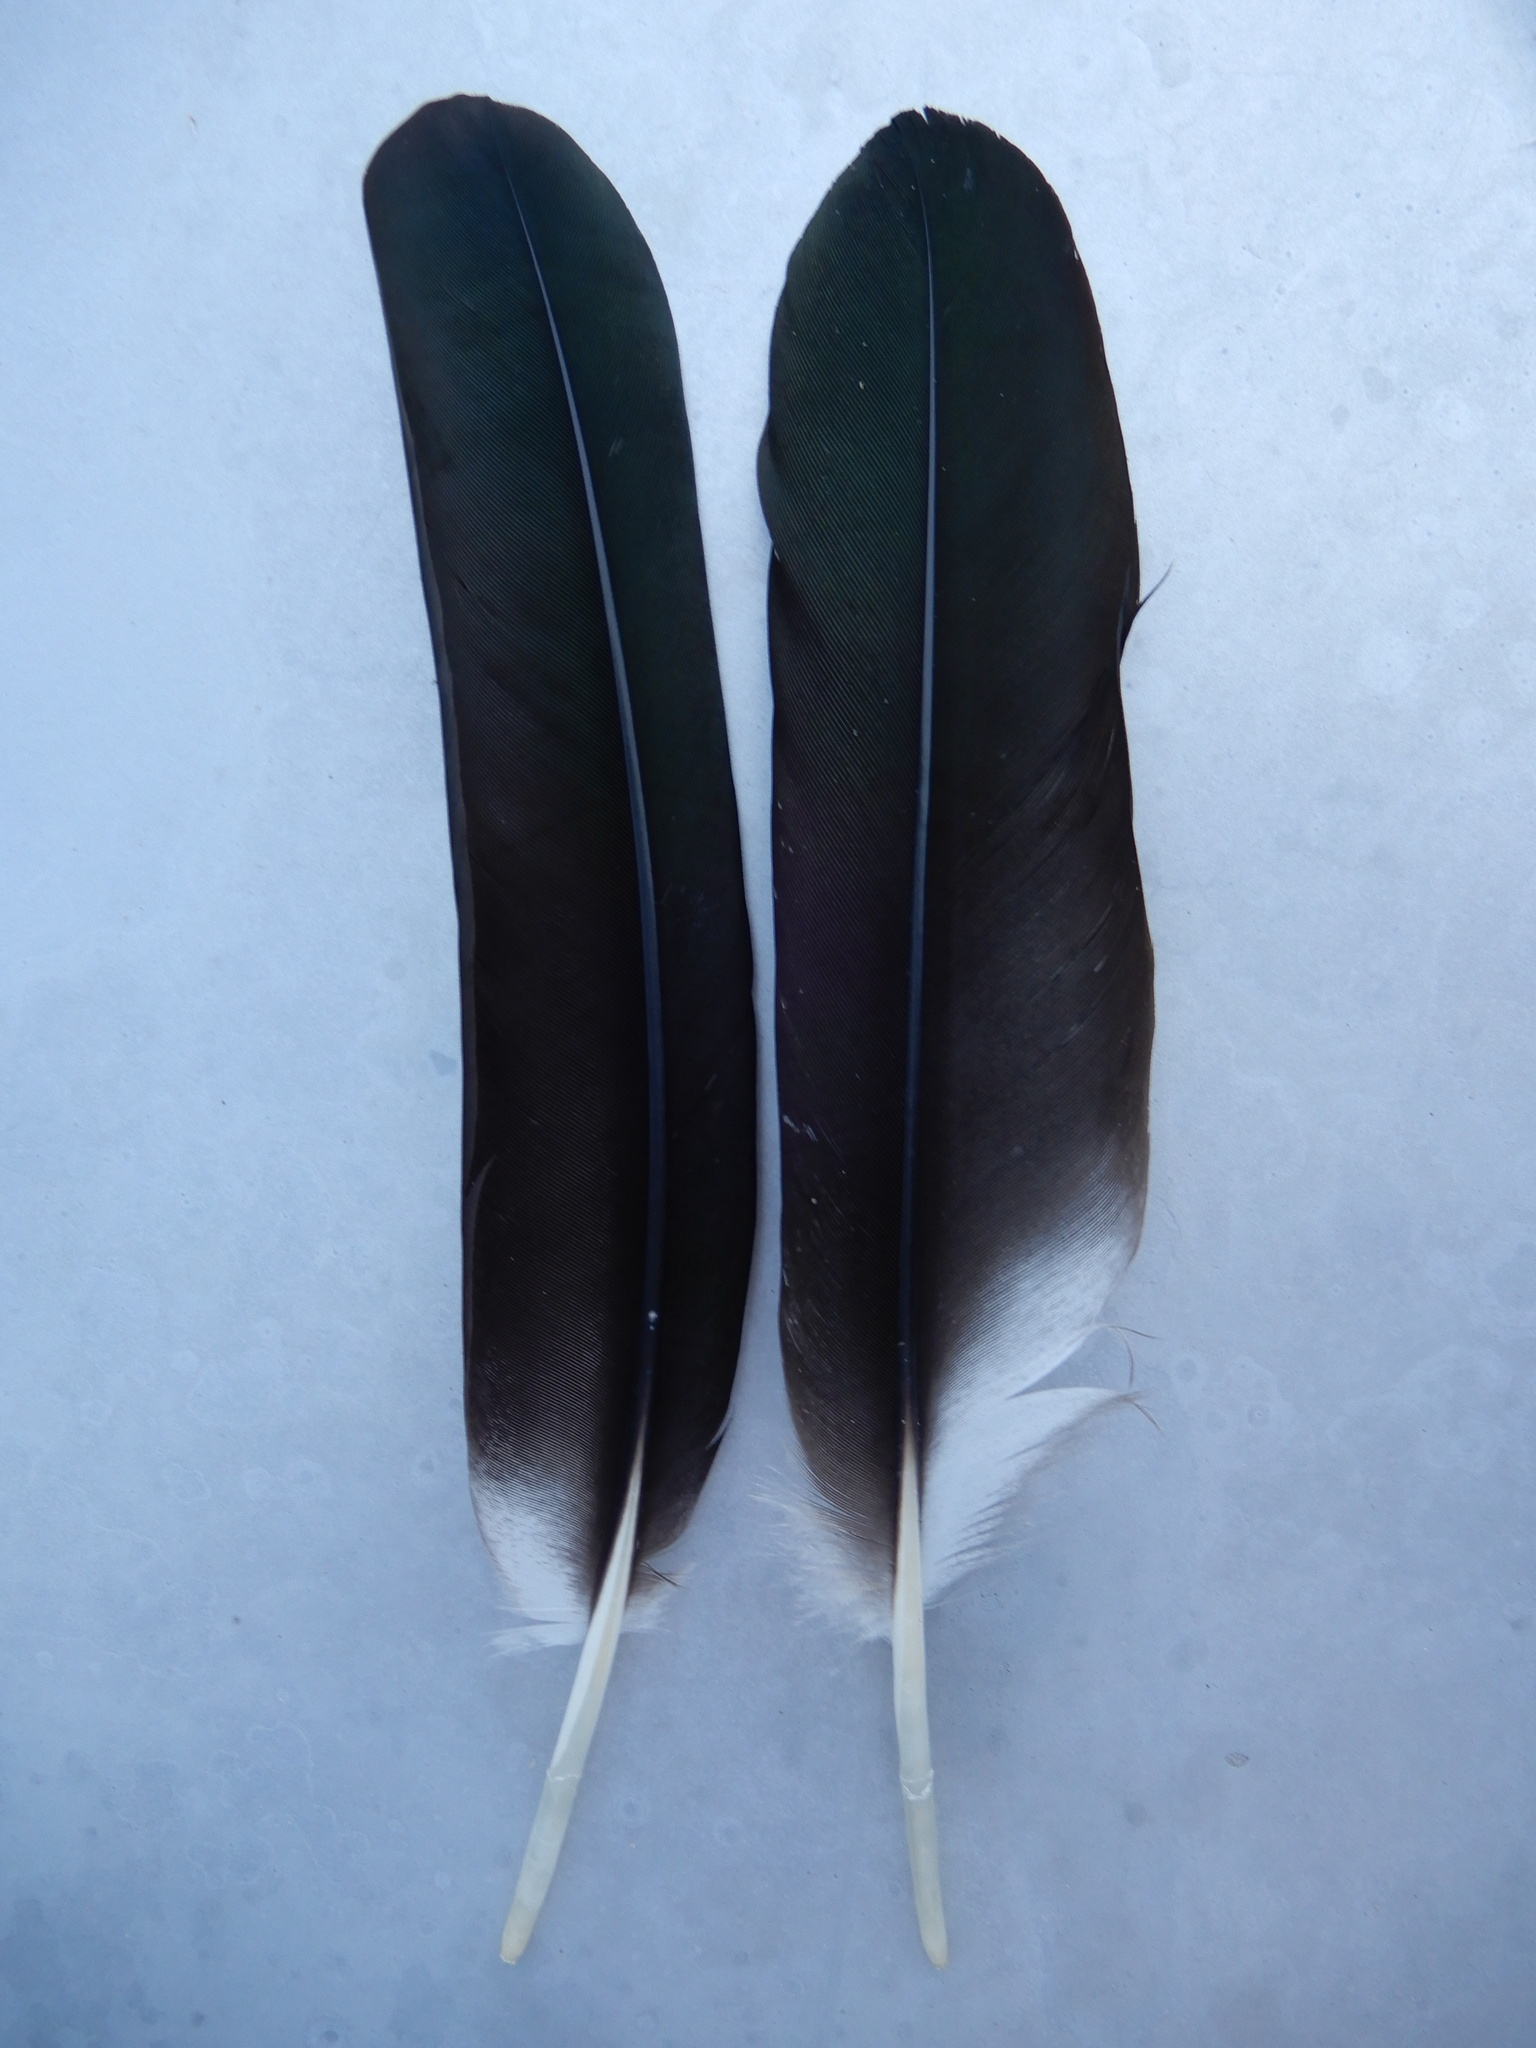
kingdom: Animalia
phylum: Chordata
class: Aves
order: Ciconiiformes
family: Ciconiidae
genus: Mycteria
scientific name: Mycteria americana
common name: Wood stork
